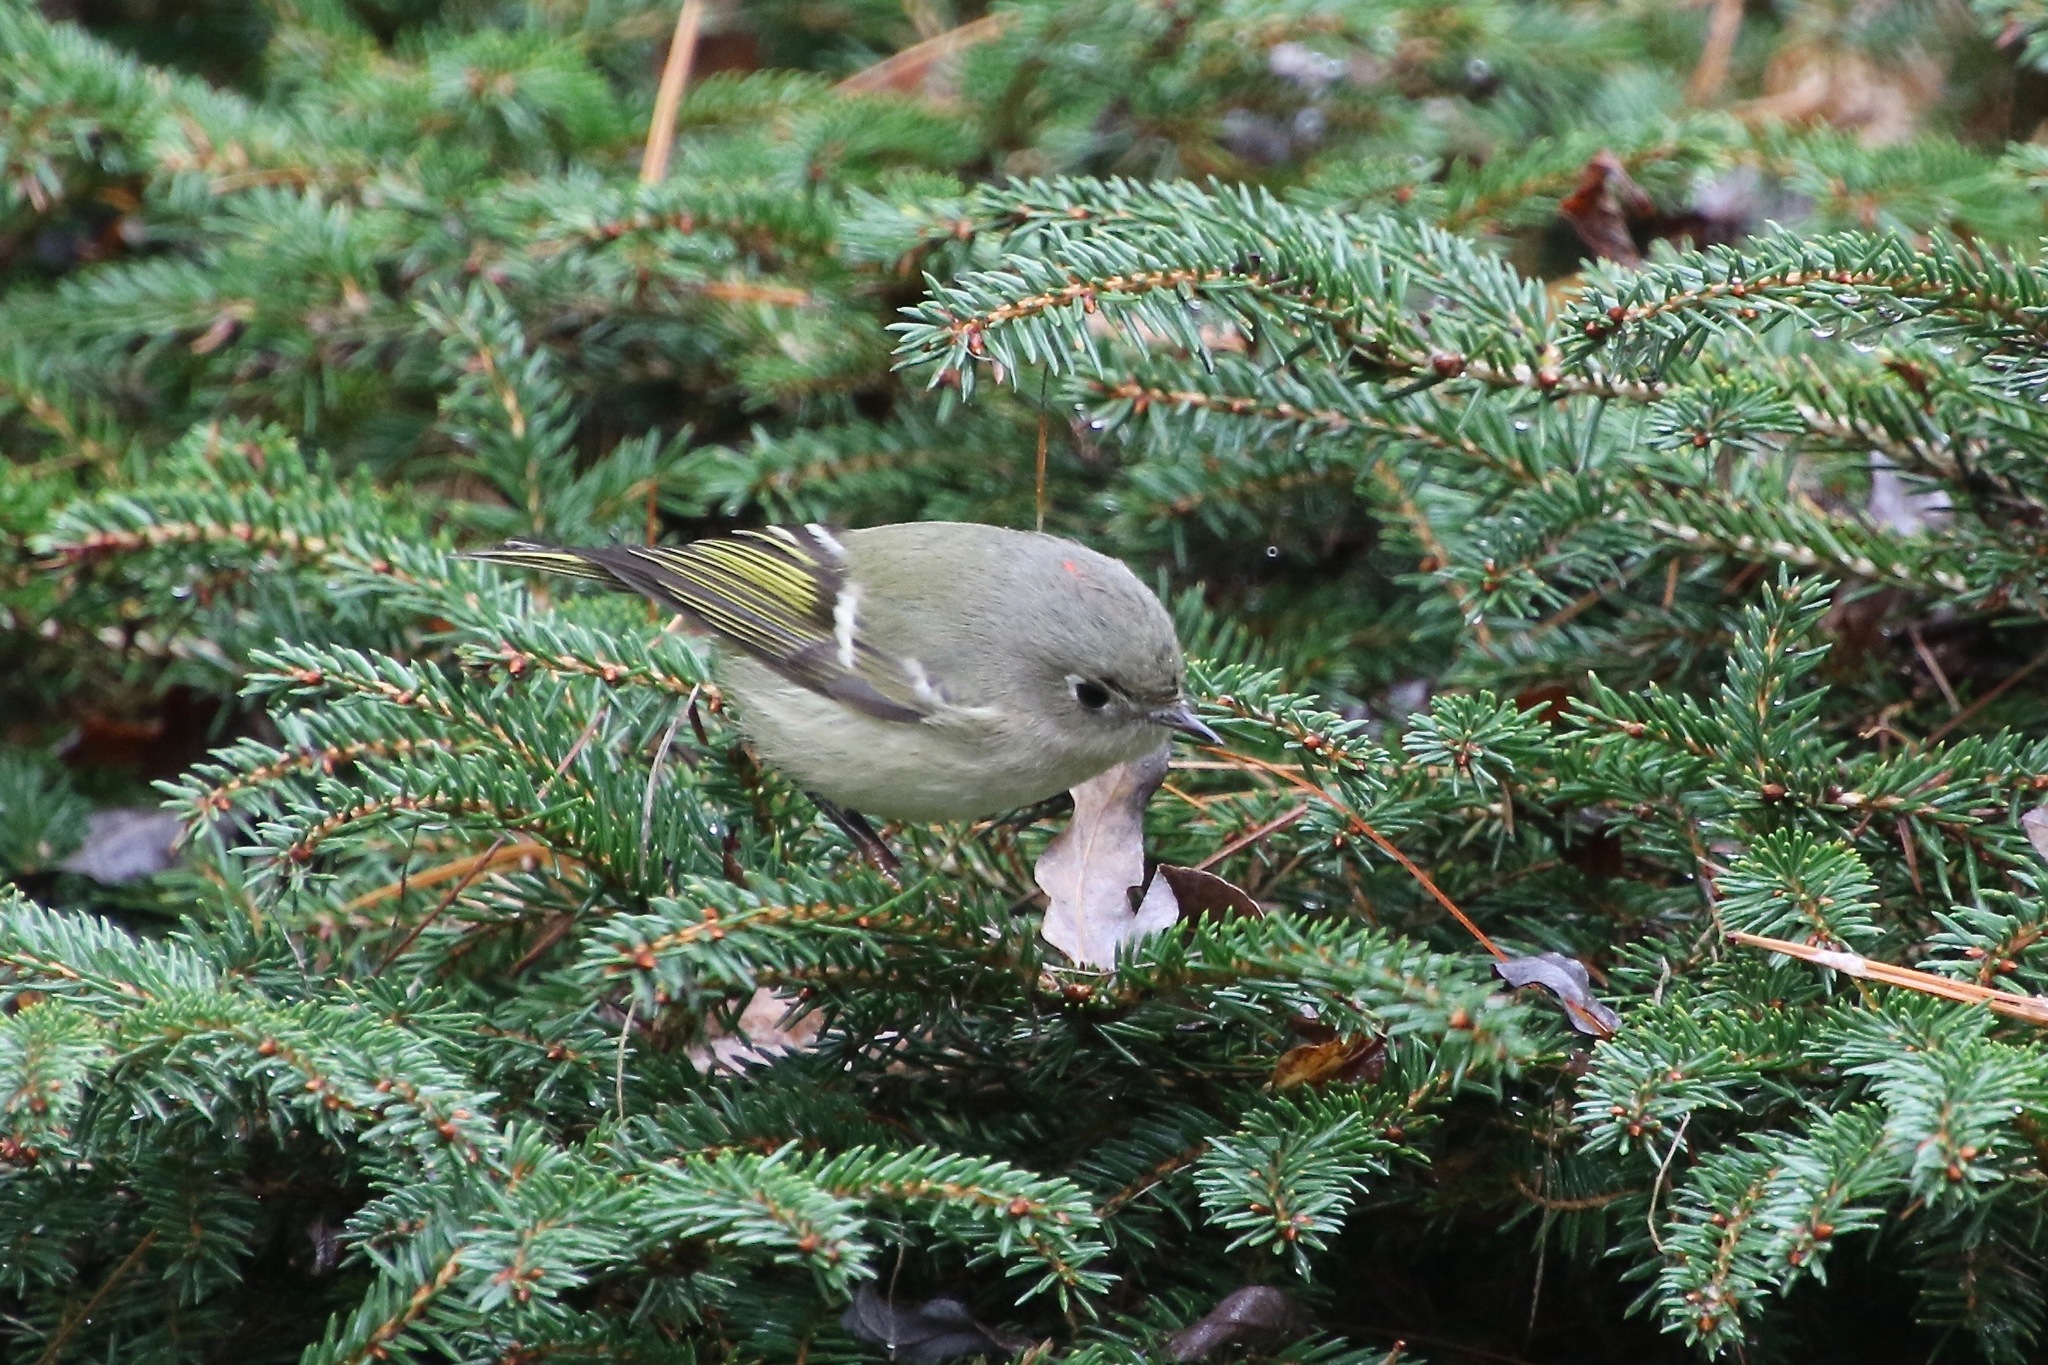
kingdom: Animalia
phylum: Chordata
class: Aves
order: Passeriformes
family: Regulidae
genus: Regulus
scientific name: Regulus calendula
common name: Ruby-crowned kinglet
